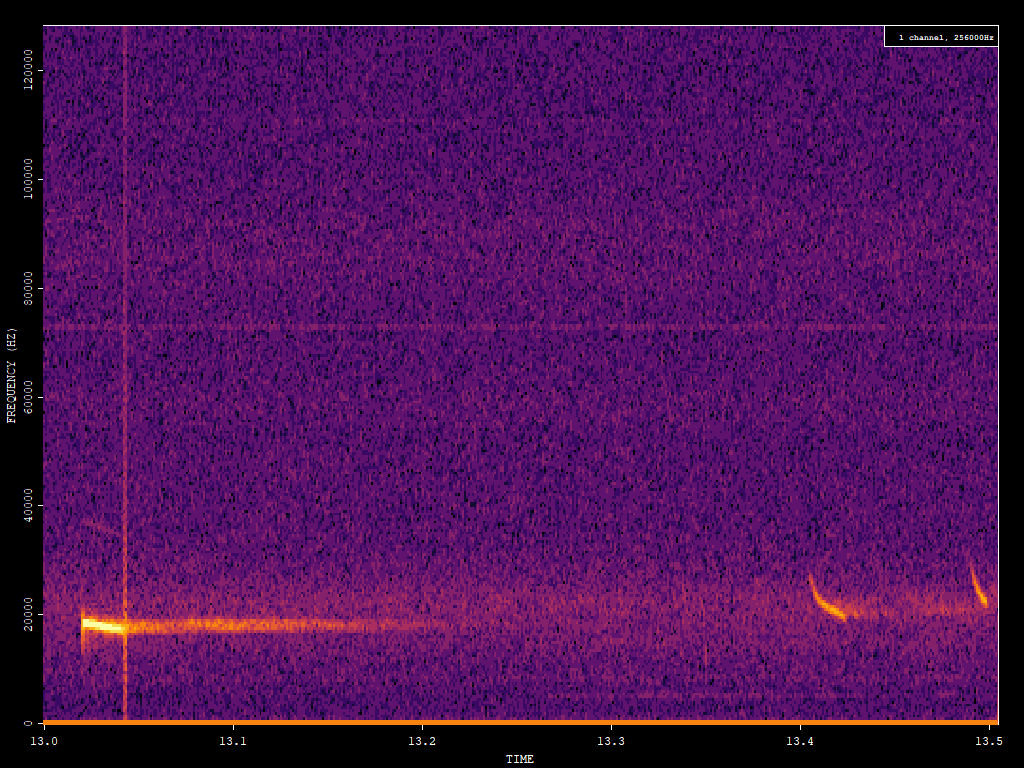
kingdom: Animalia
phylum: Chordata
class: Mammalia
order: Chiroptera
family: Vespertilionidae
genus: Nyctalus
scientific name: Nyctalus noctula
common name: Noctule
